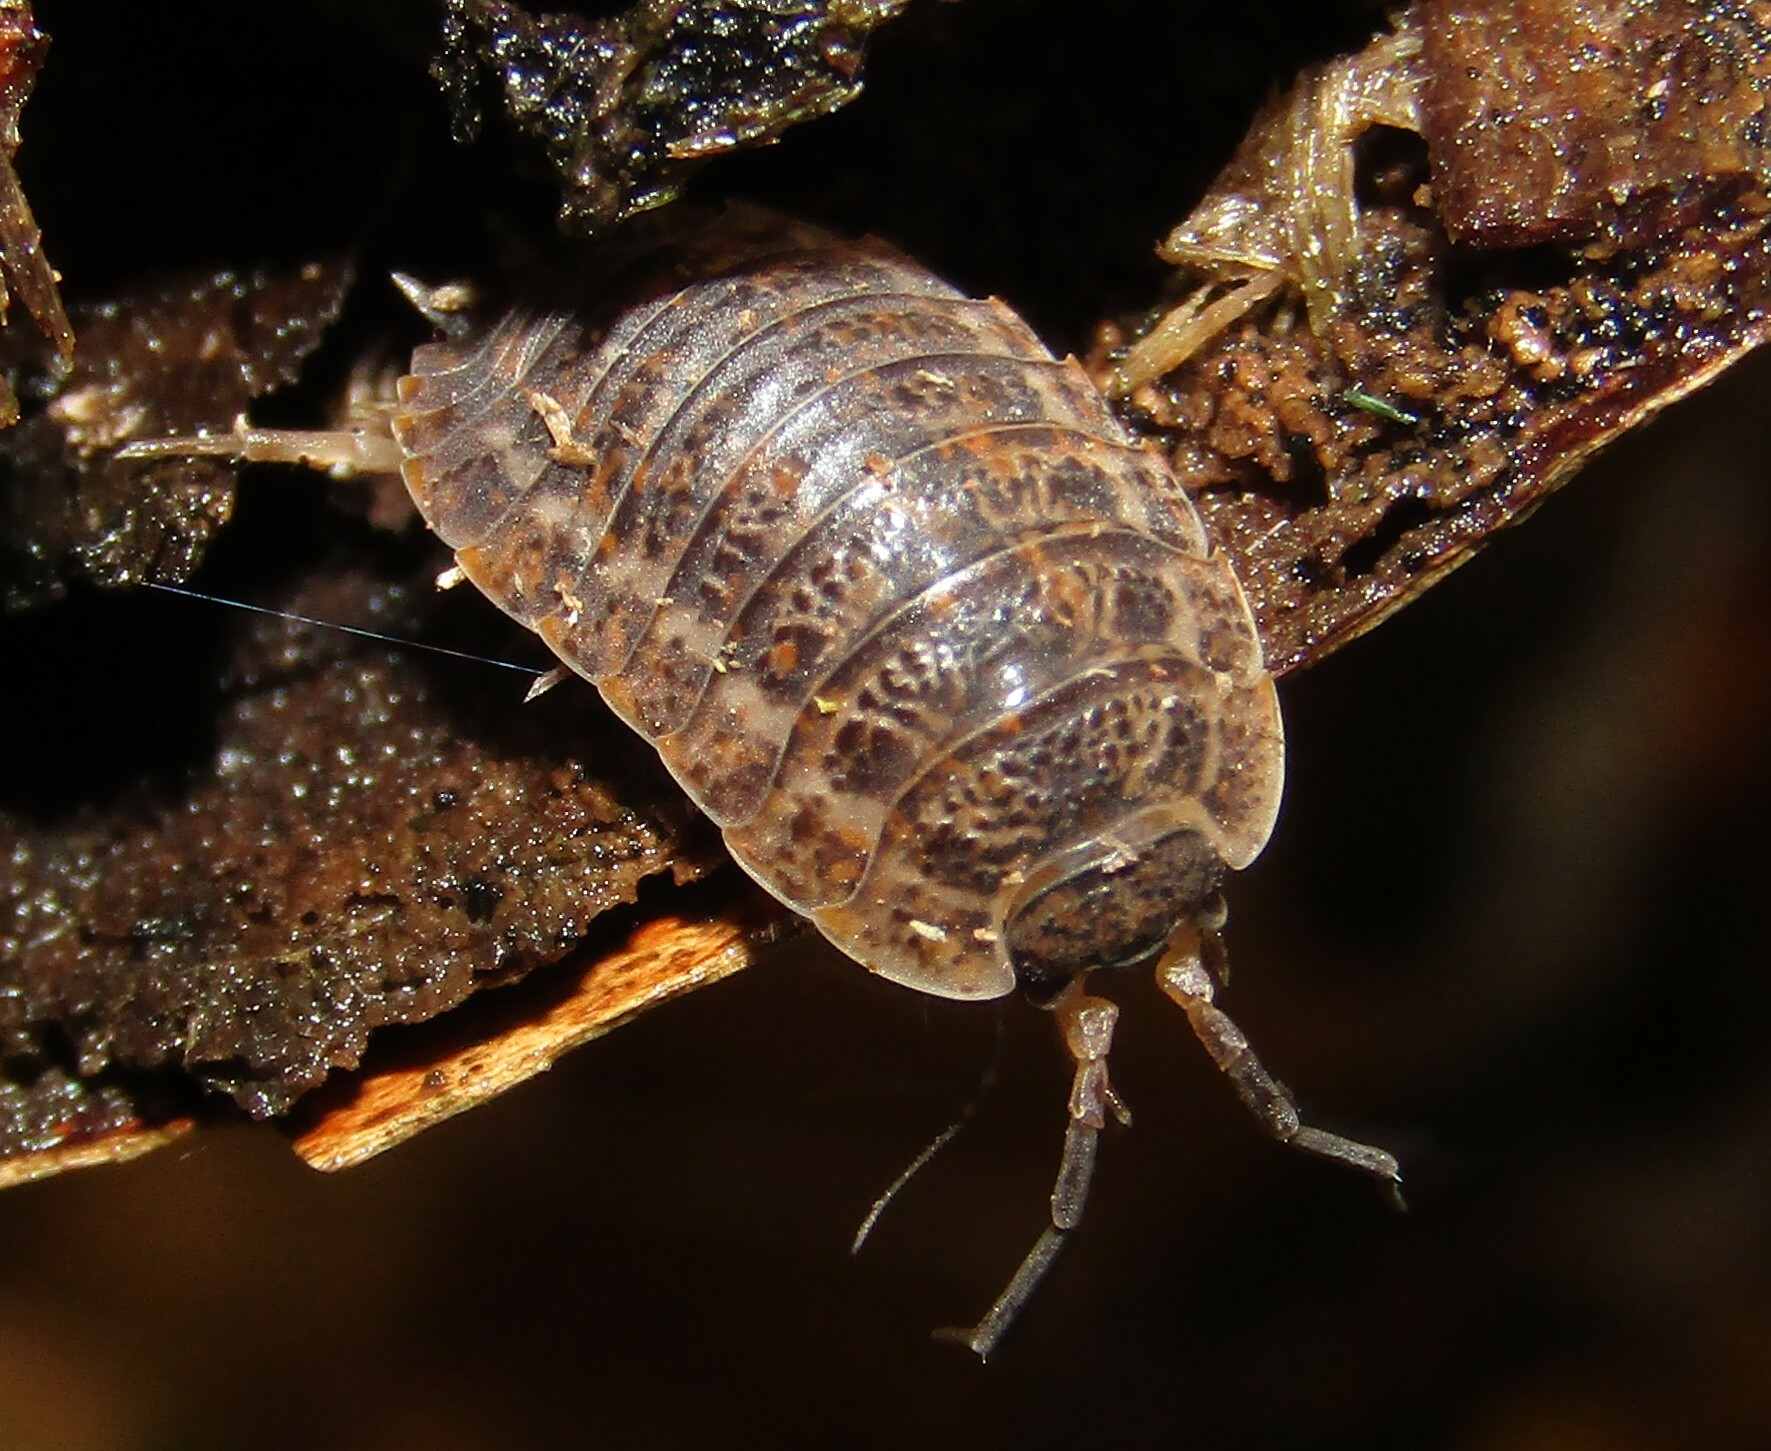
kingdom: Animalia
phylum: Arthropoda
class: Malacostraca
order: Isopoda
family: Trachelipodidae
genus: Trachelipus
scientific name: Trachelipus rathkii
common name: Isopod
